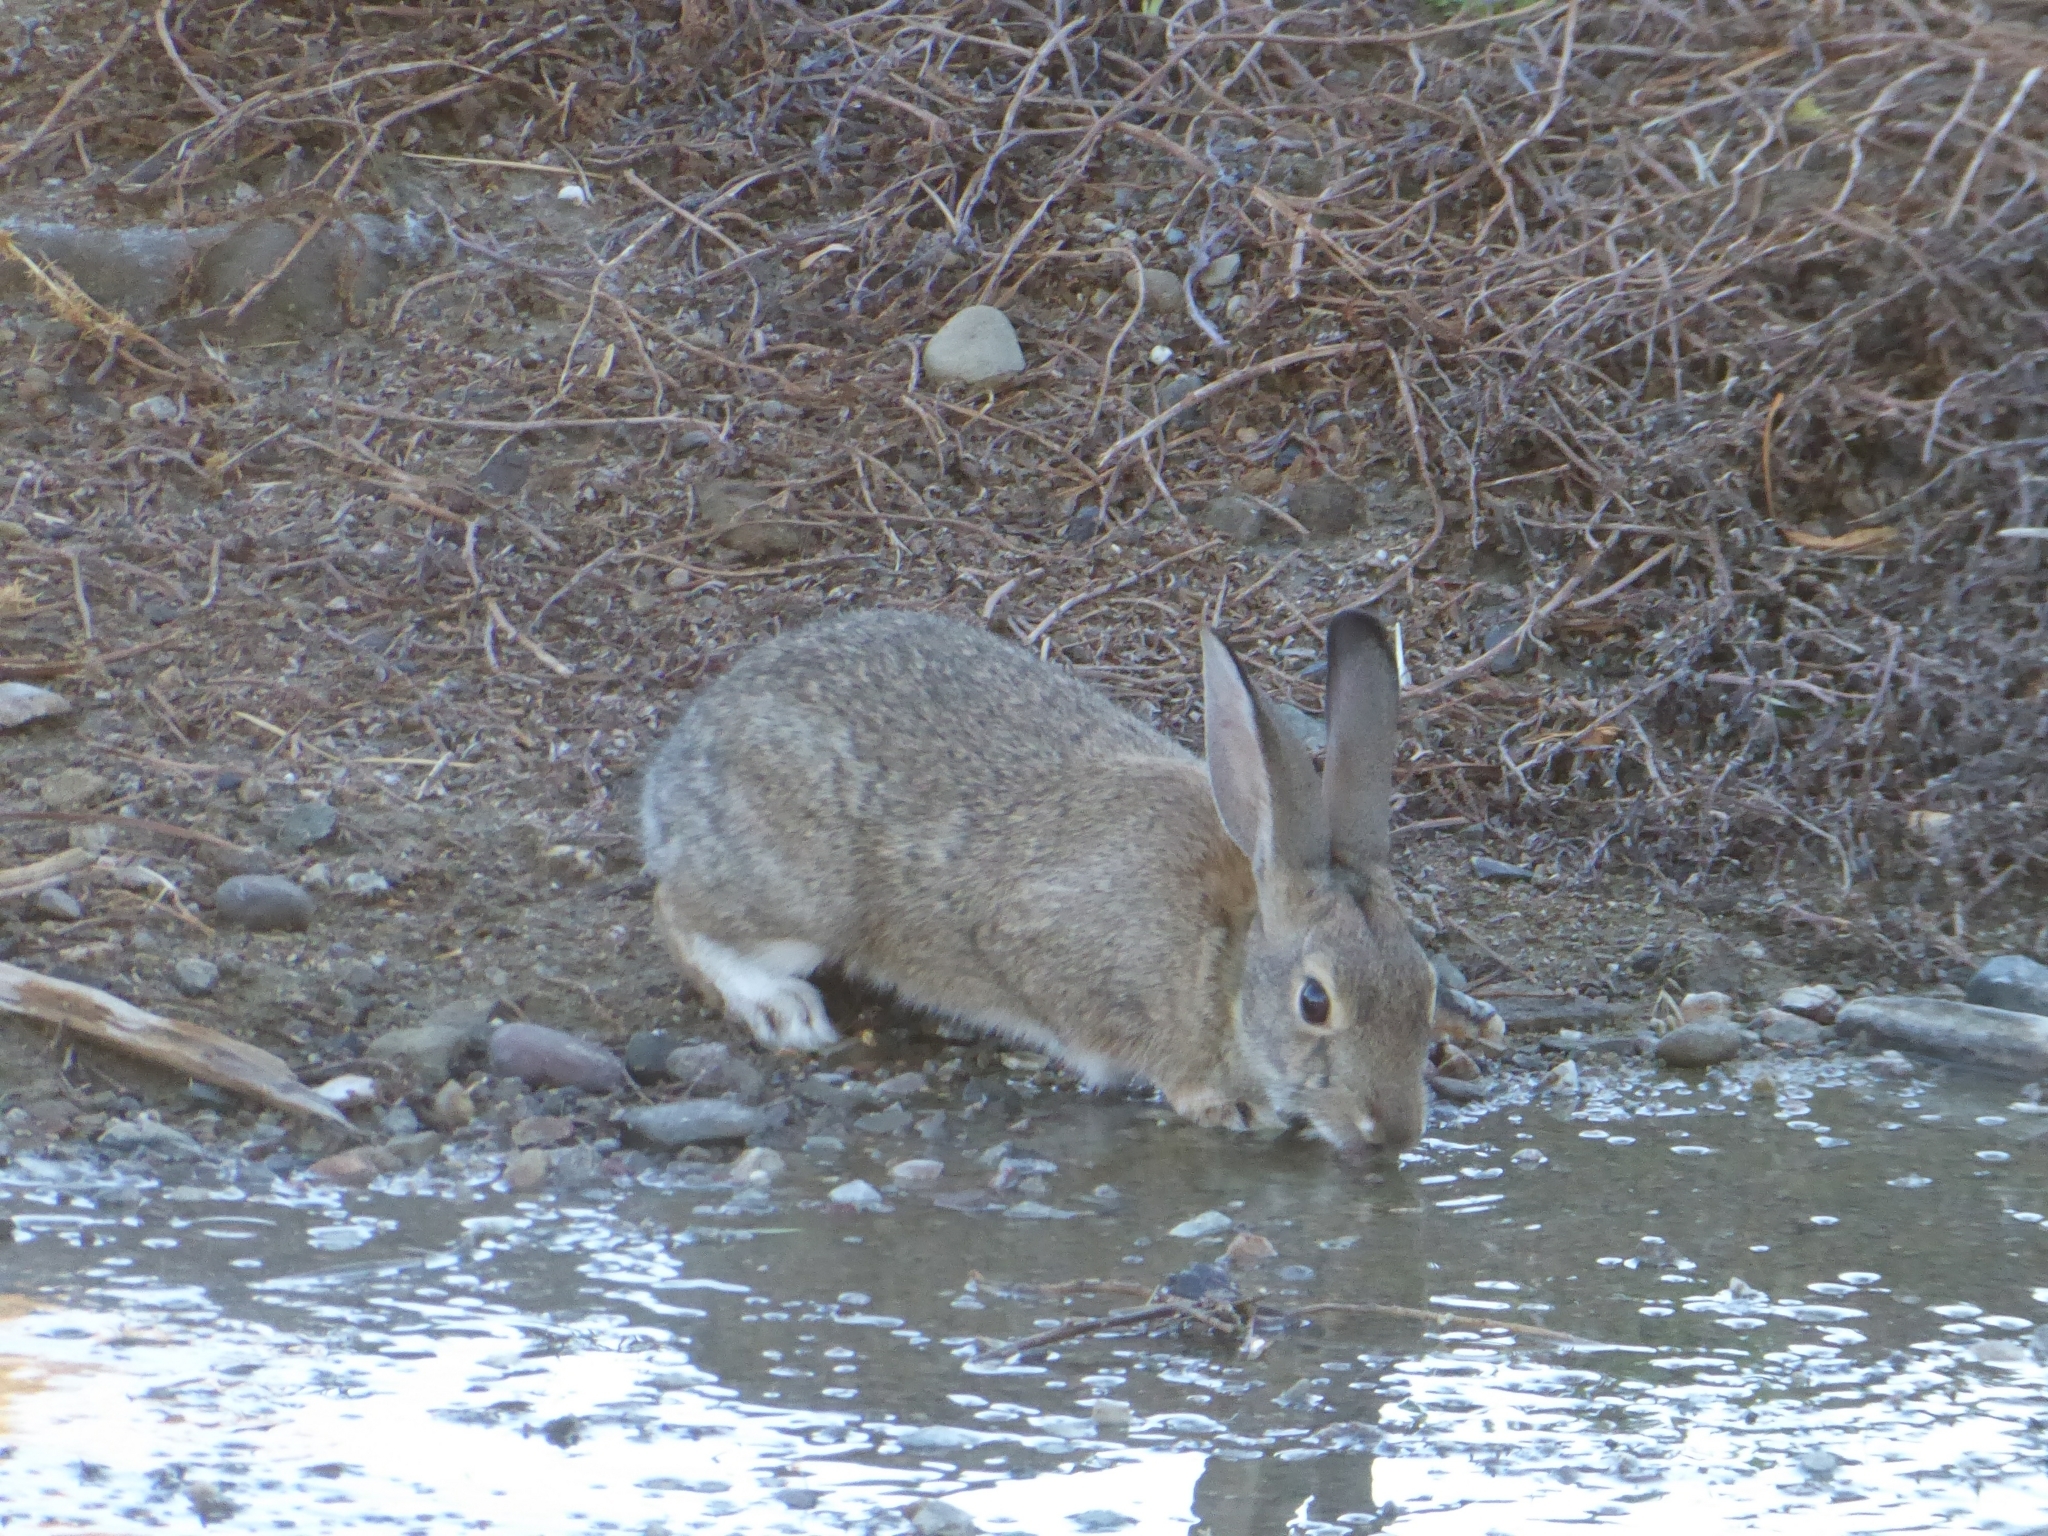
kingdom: Animalia
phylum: Chordata
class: Mammalia
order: Lagomorpha
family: Leporidae
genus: Sylvilagus
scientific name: Sylvilagus audubonii
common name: Desert cottontail
